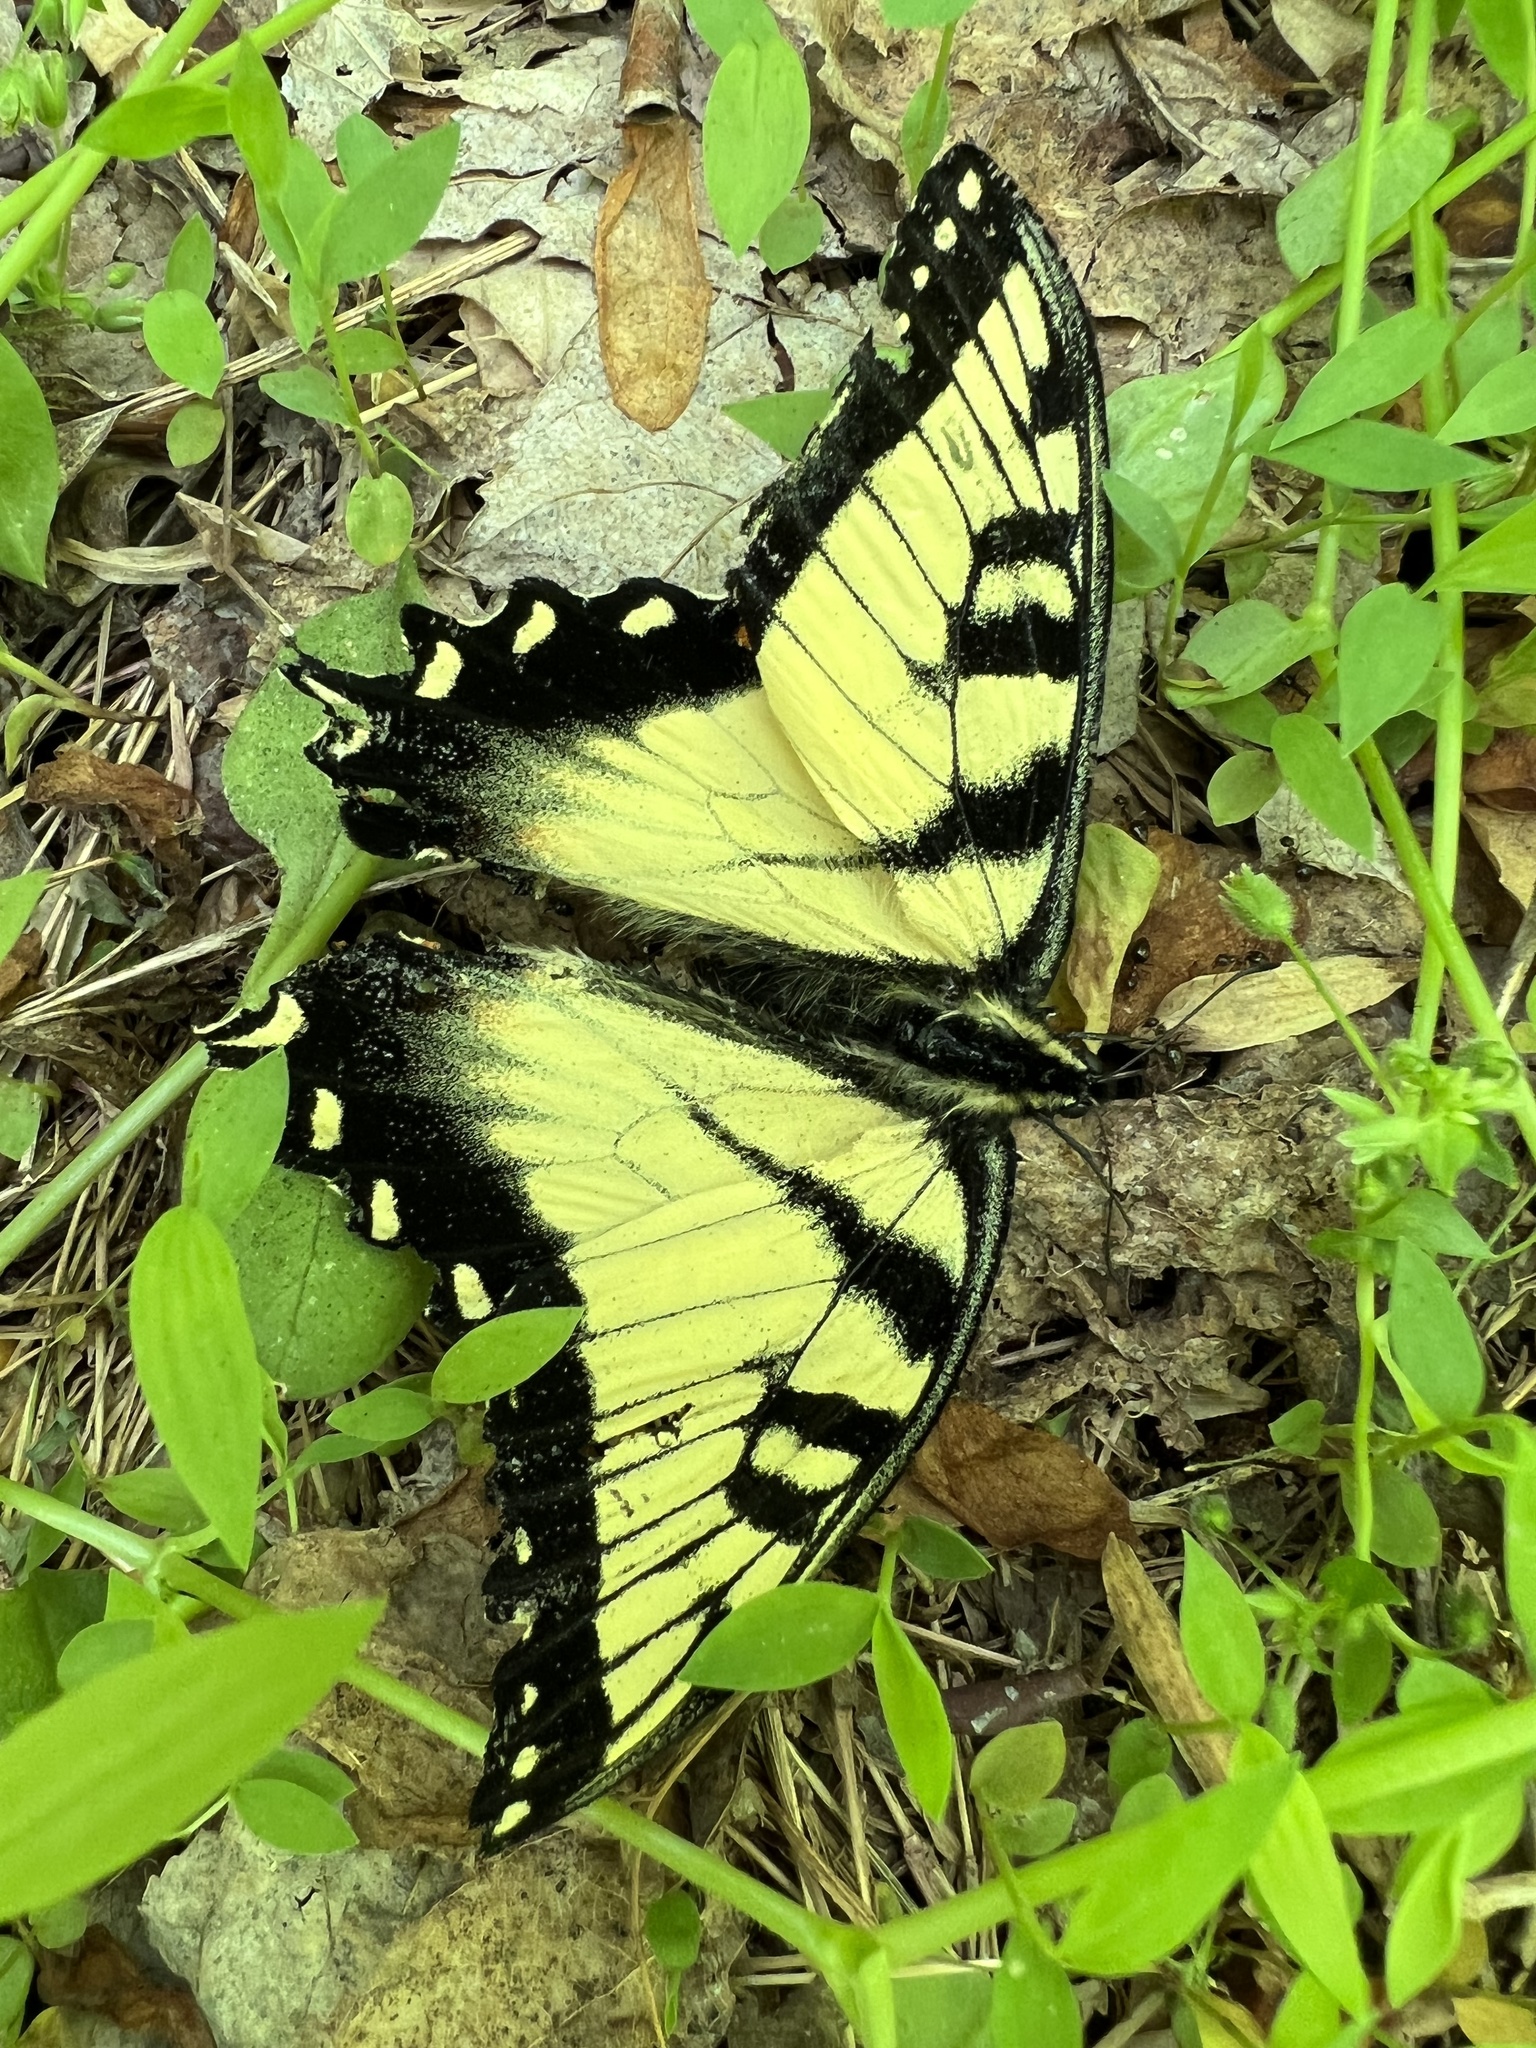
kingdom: Animalia
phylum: Arthropoda
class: Insecta
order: Lepidoptera
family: Papilionidae
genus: Papilio
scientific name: Papilio glaucus
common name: Tiger swallowtail
